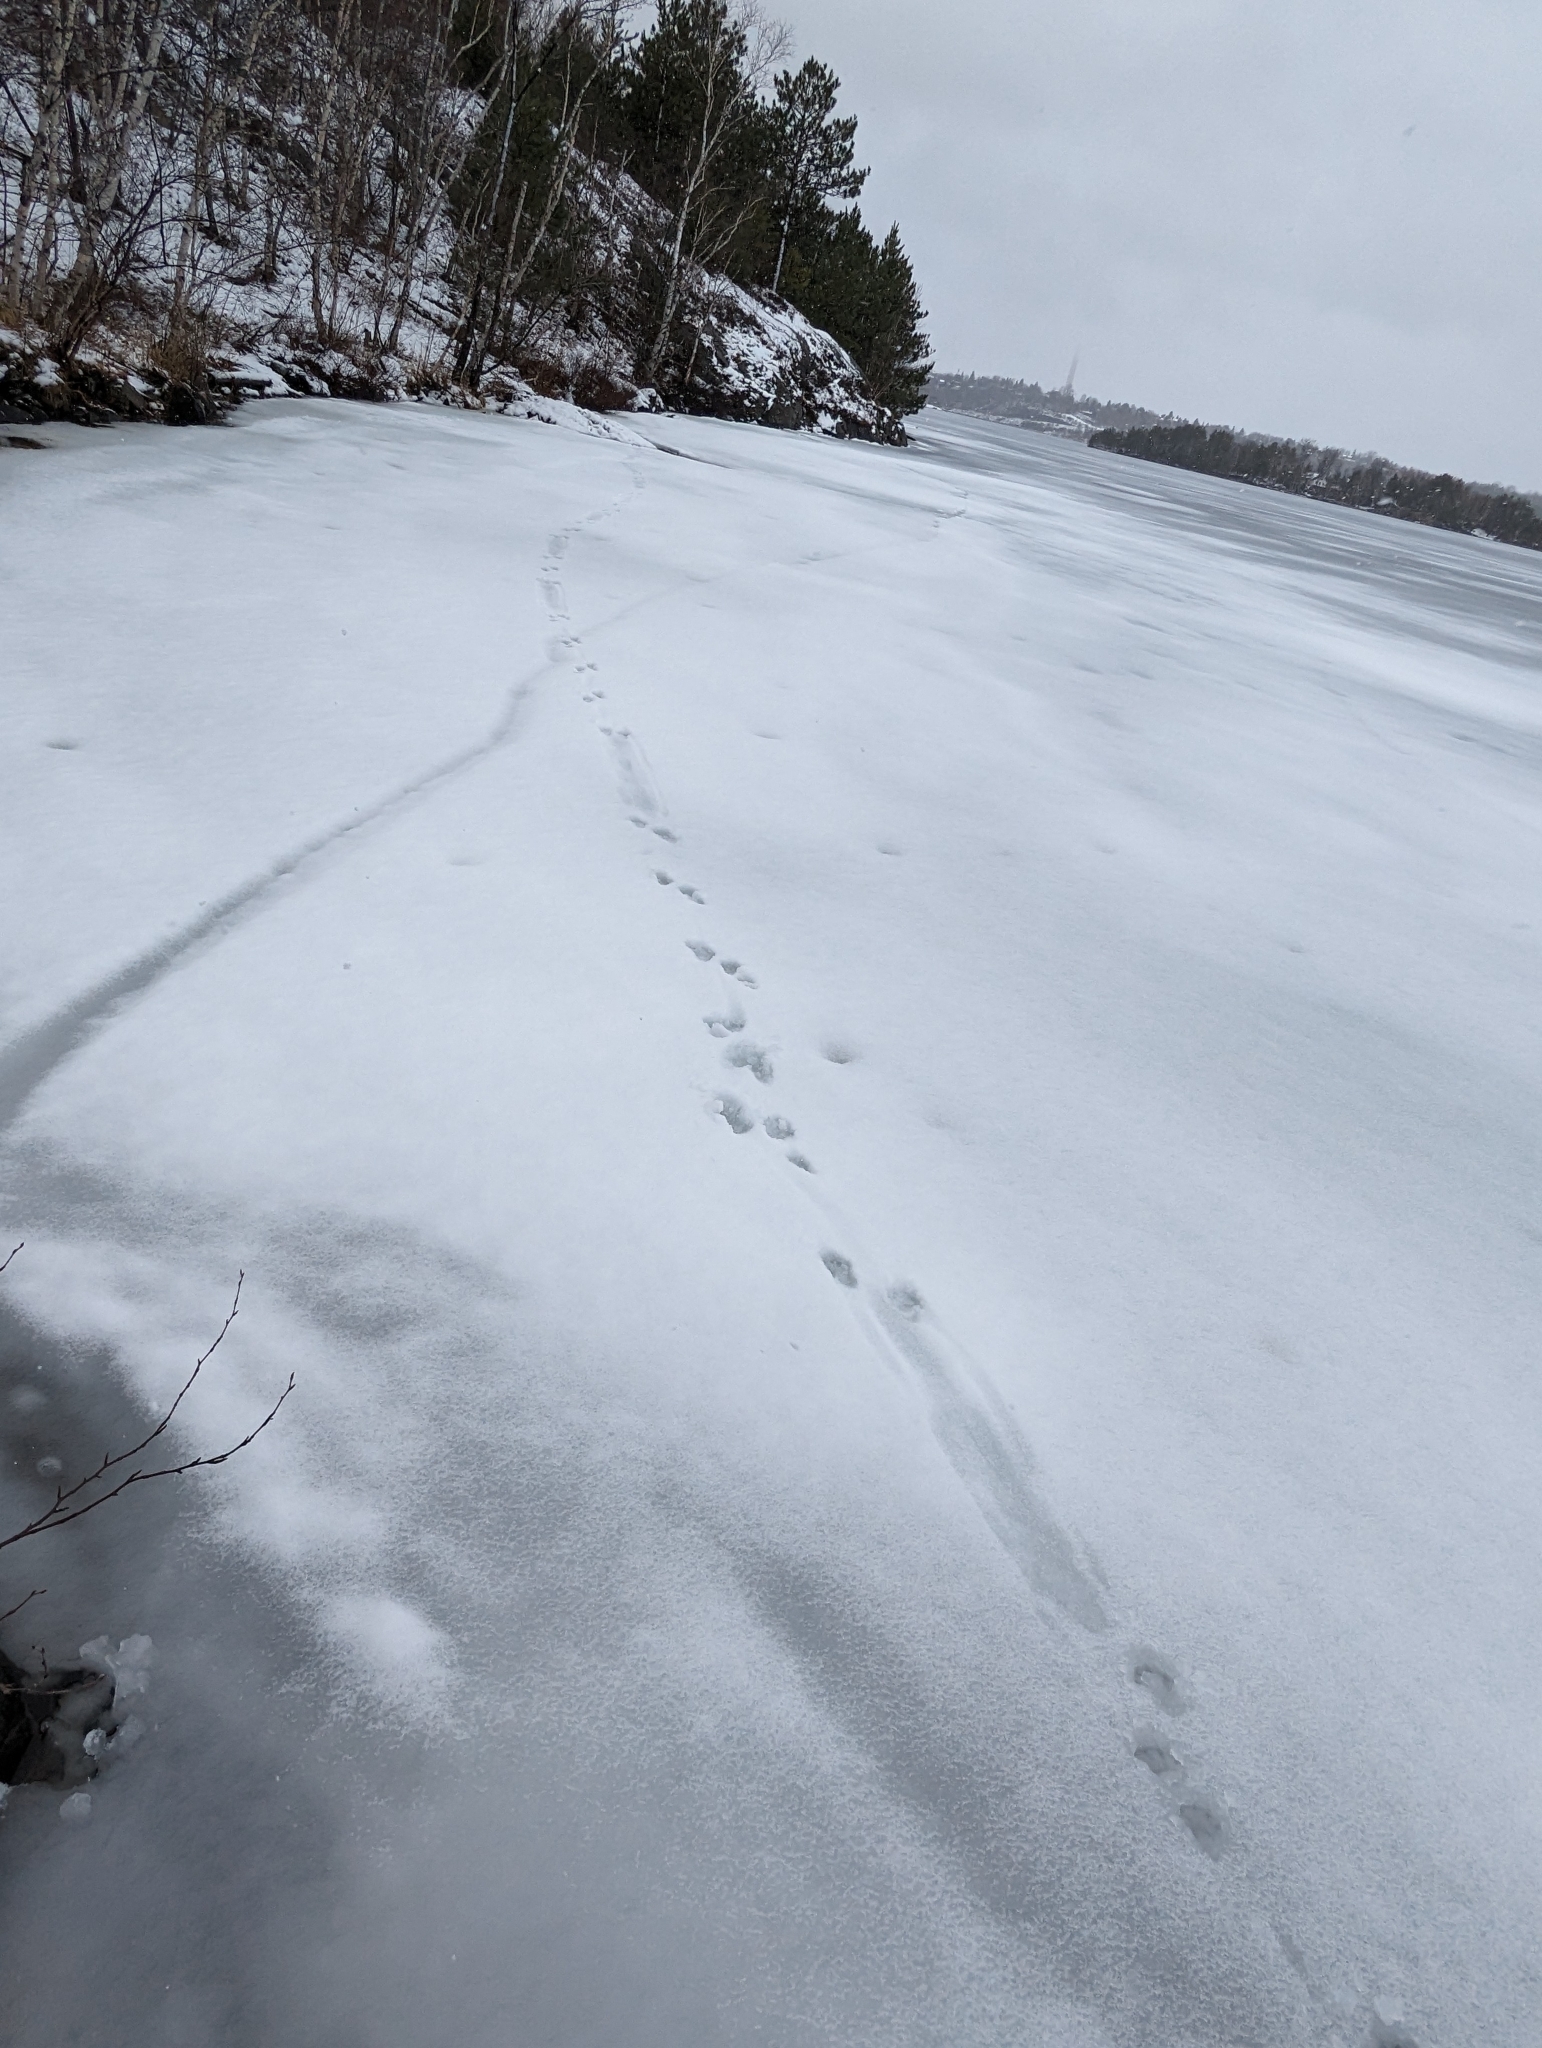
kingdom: Animalia
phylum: Chordata
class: Mammalia
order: Carnivora
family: Mustelidae
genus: Lontra
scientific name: Lontra canadensis
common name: North american river otter
